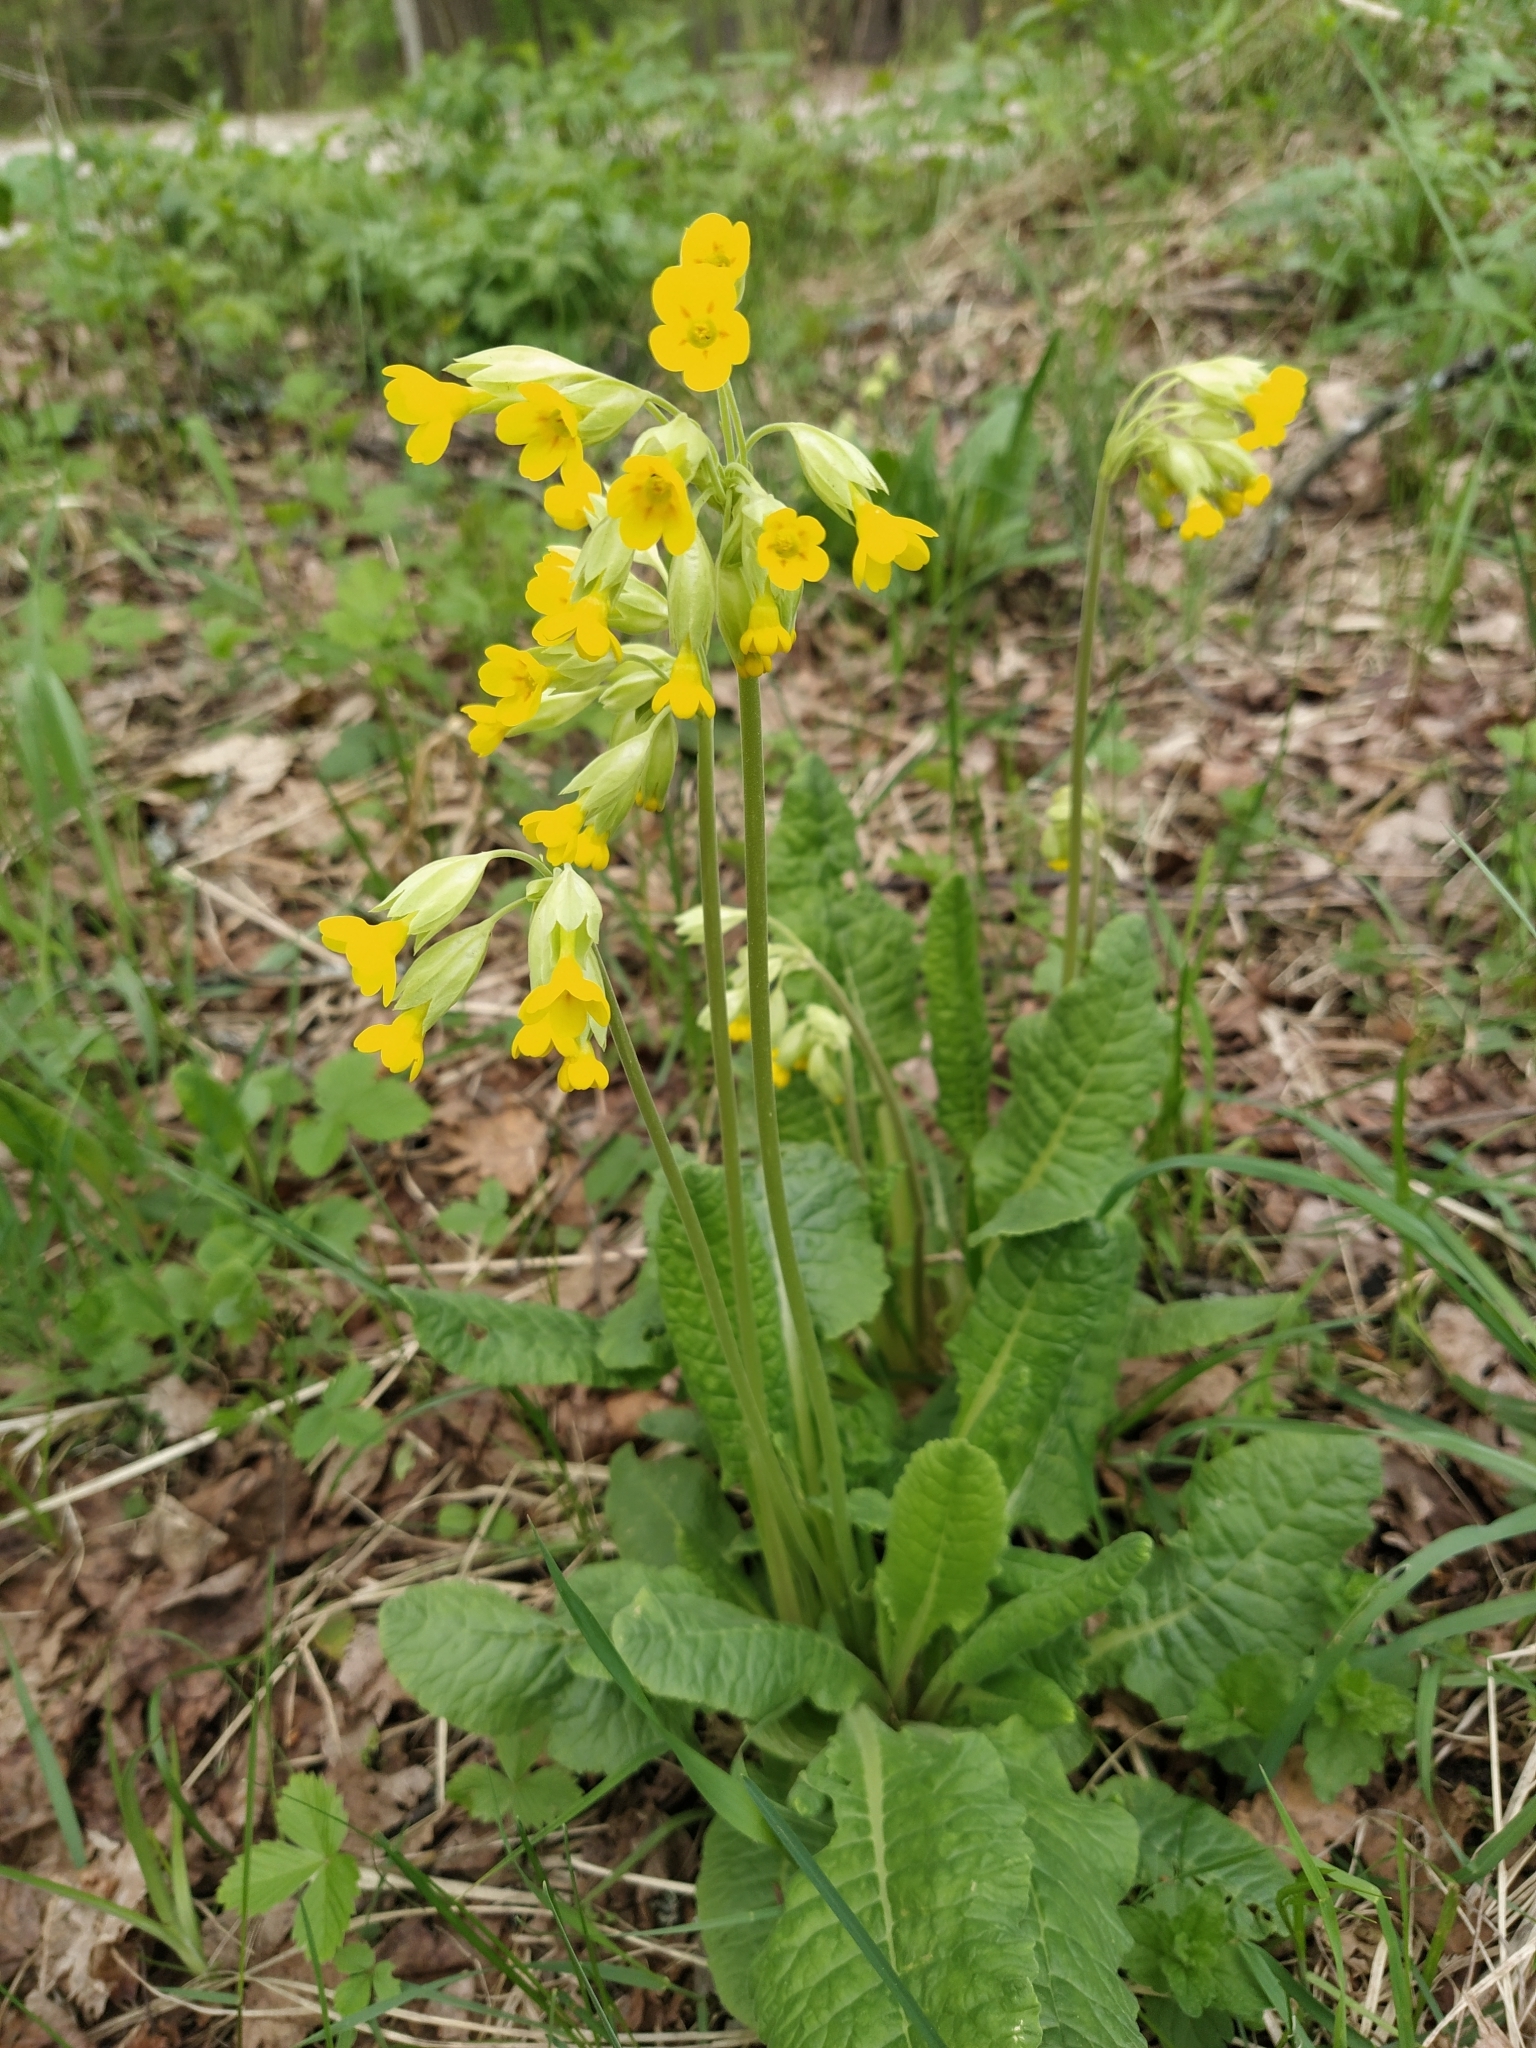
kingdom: Plantae
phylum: Tracheophyta
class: Magnoliopsida
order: Ericales
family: Primulaceae
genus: Primula
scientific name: Primula veris
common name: Cowslip
